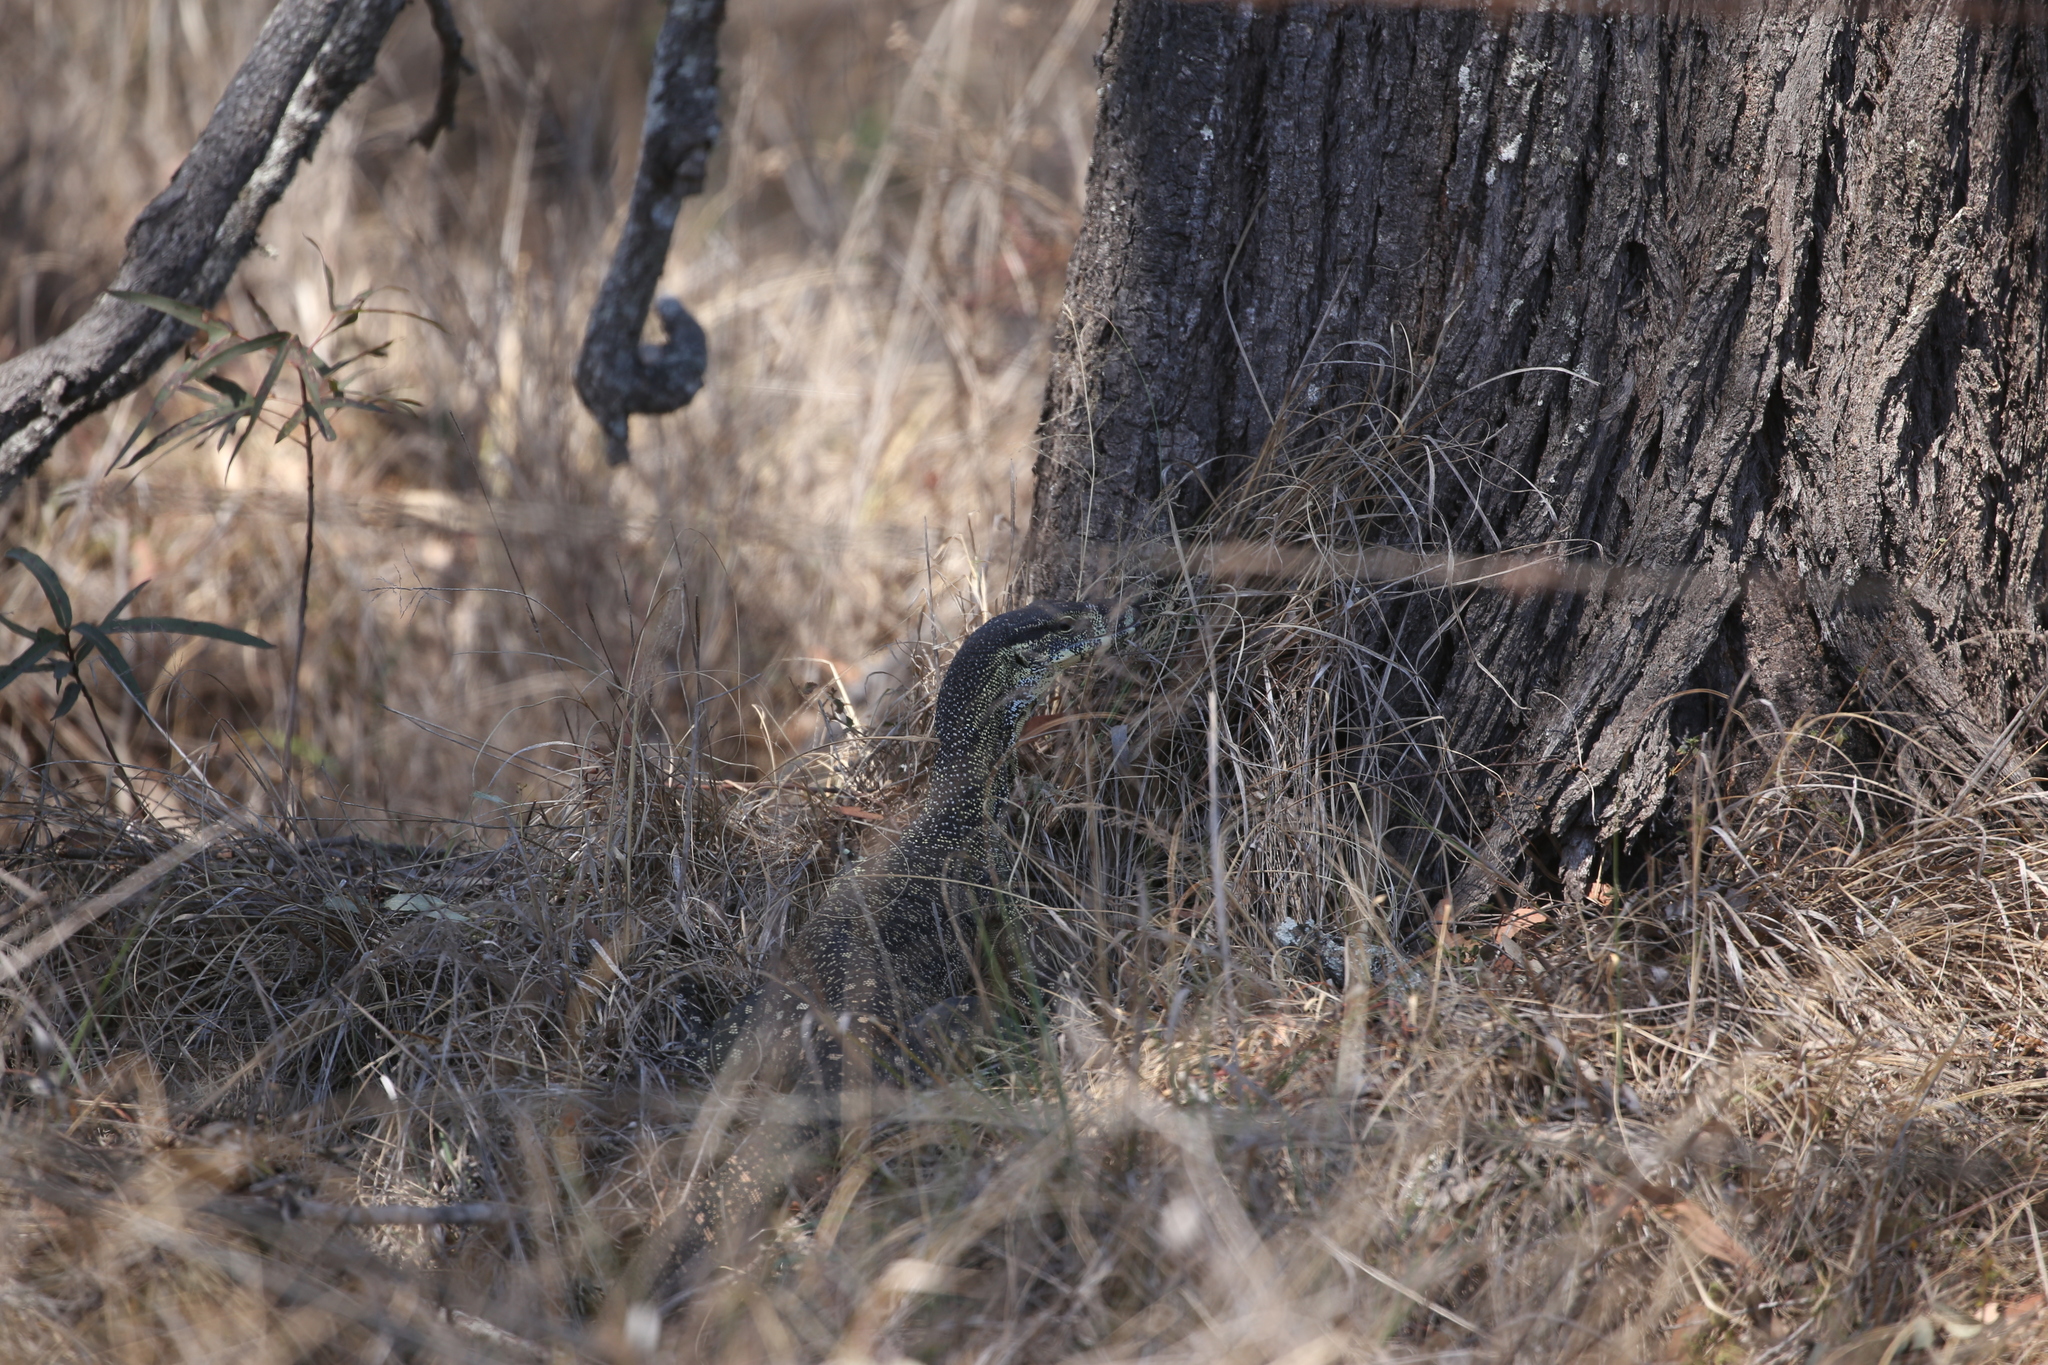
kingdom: Animalia
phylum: Chordata
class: Squamata
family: Varanidae
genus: Varanus
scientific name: Varanus varius
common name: Lace monitor
